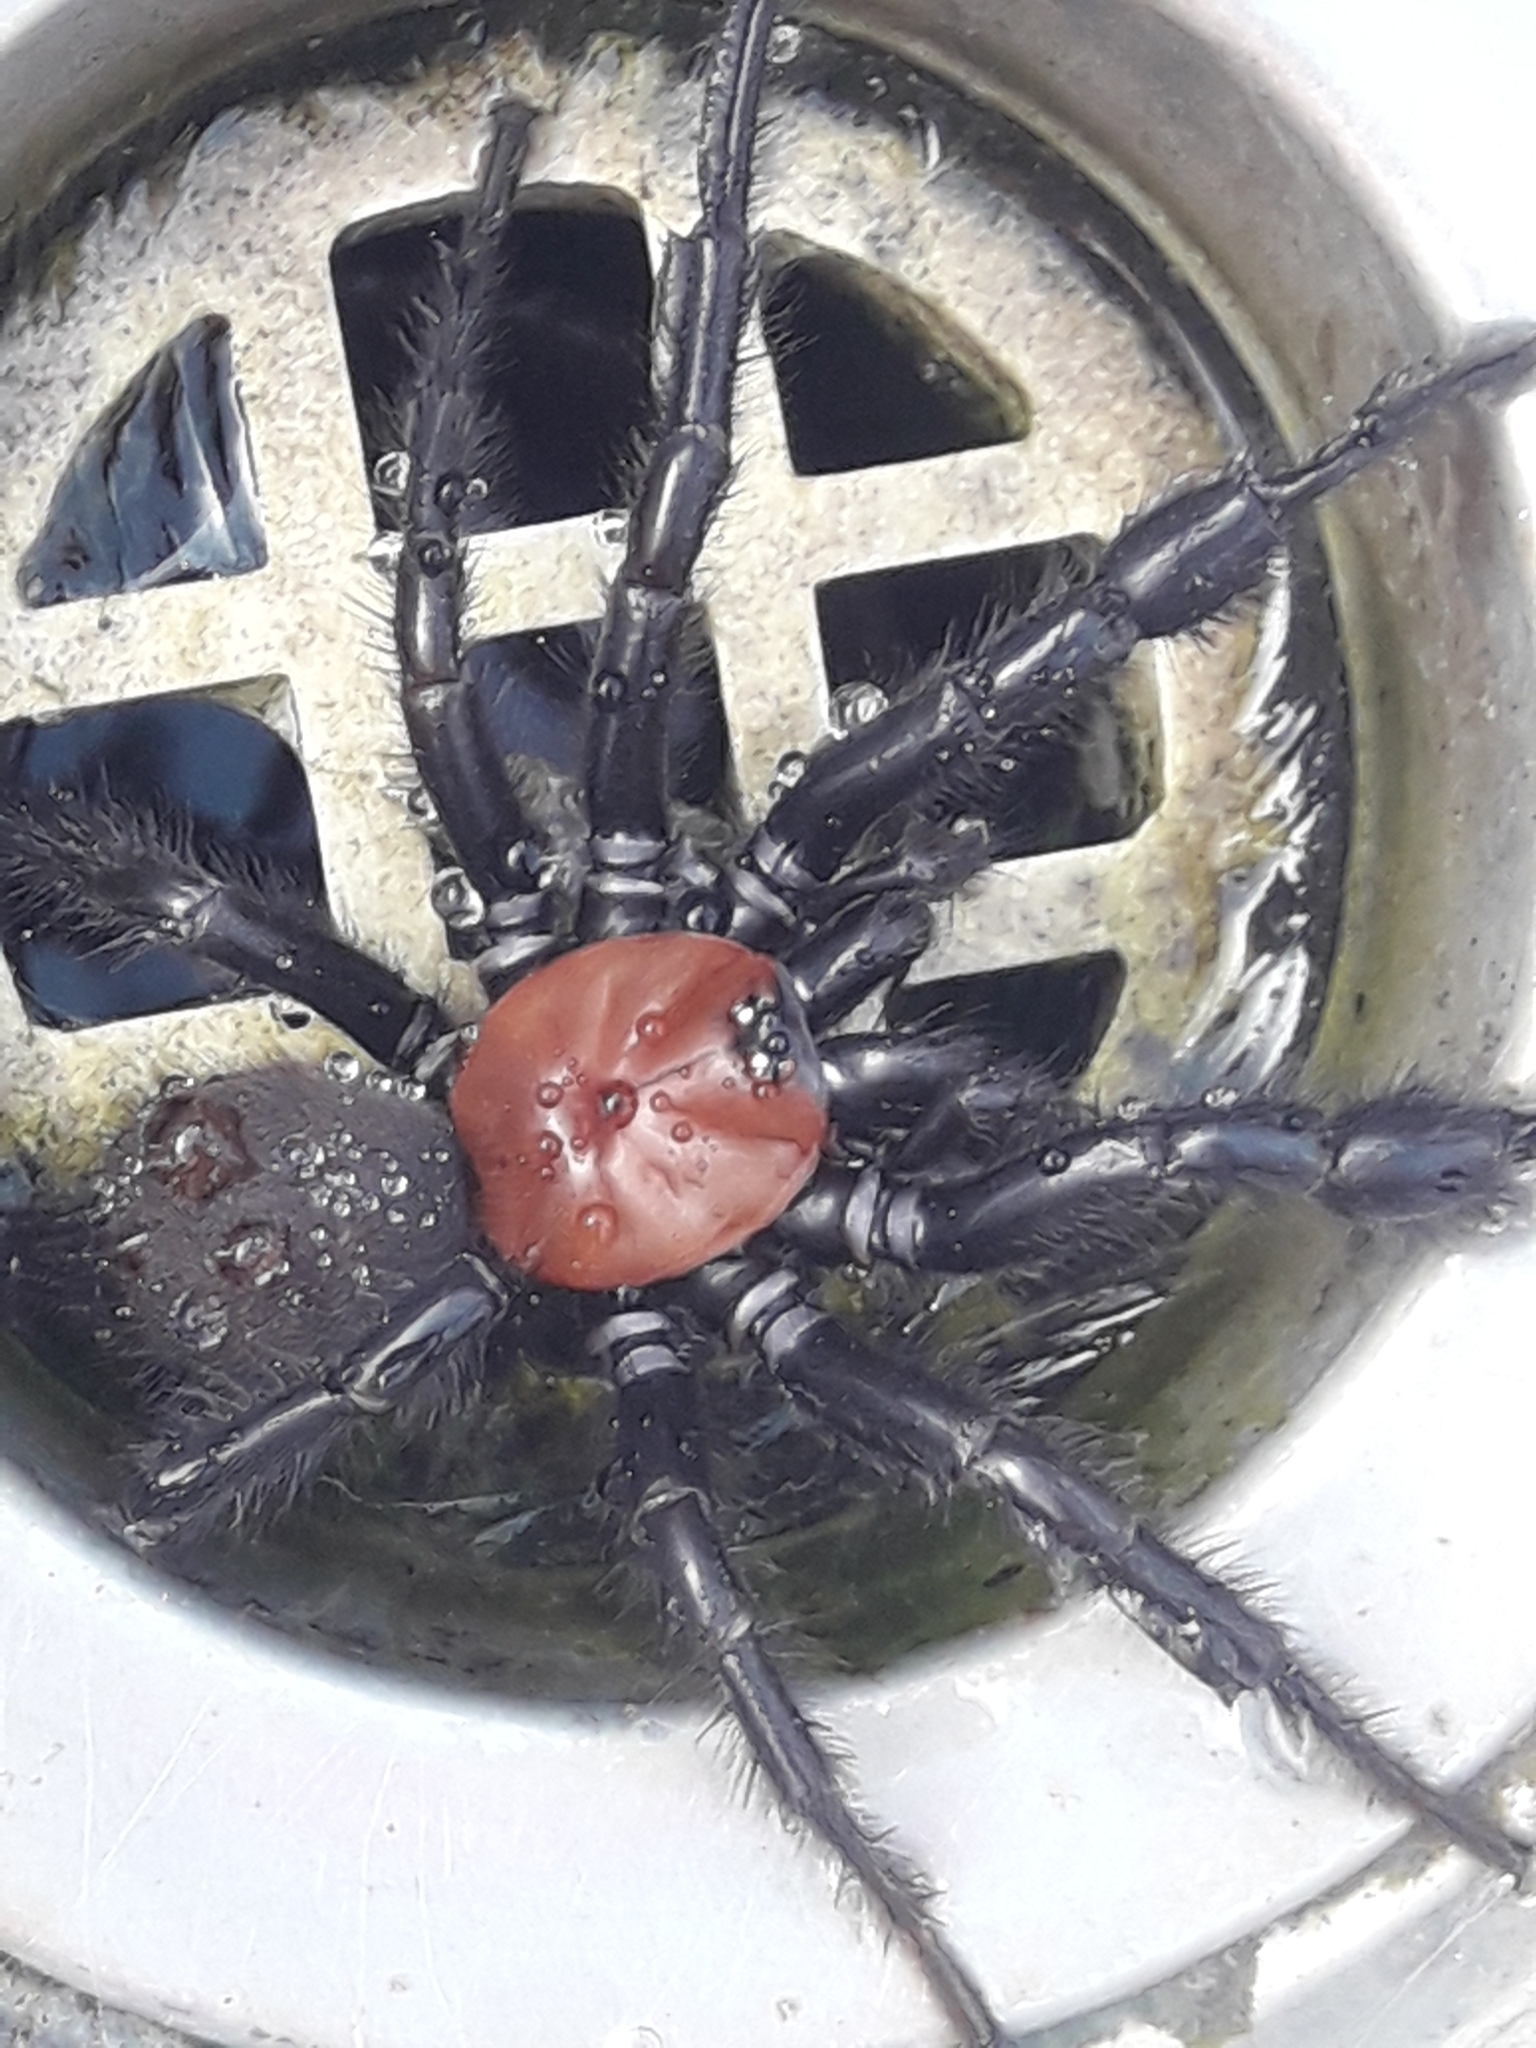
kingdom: Animalia
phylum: Arthropoda
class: Arachnida
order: Araneae
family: Porrhothelidae
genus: Porrhothele
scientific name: Porrhothele antipodiana
